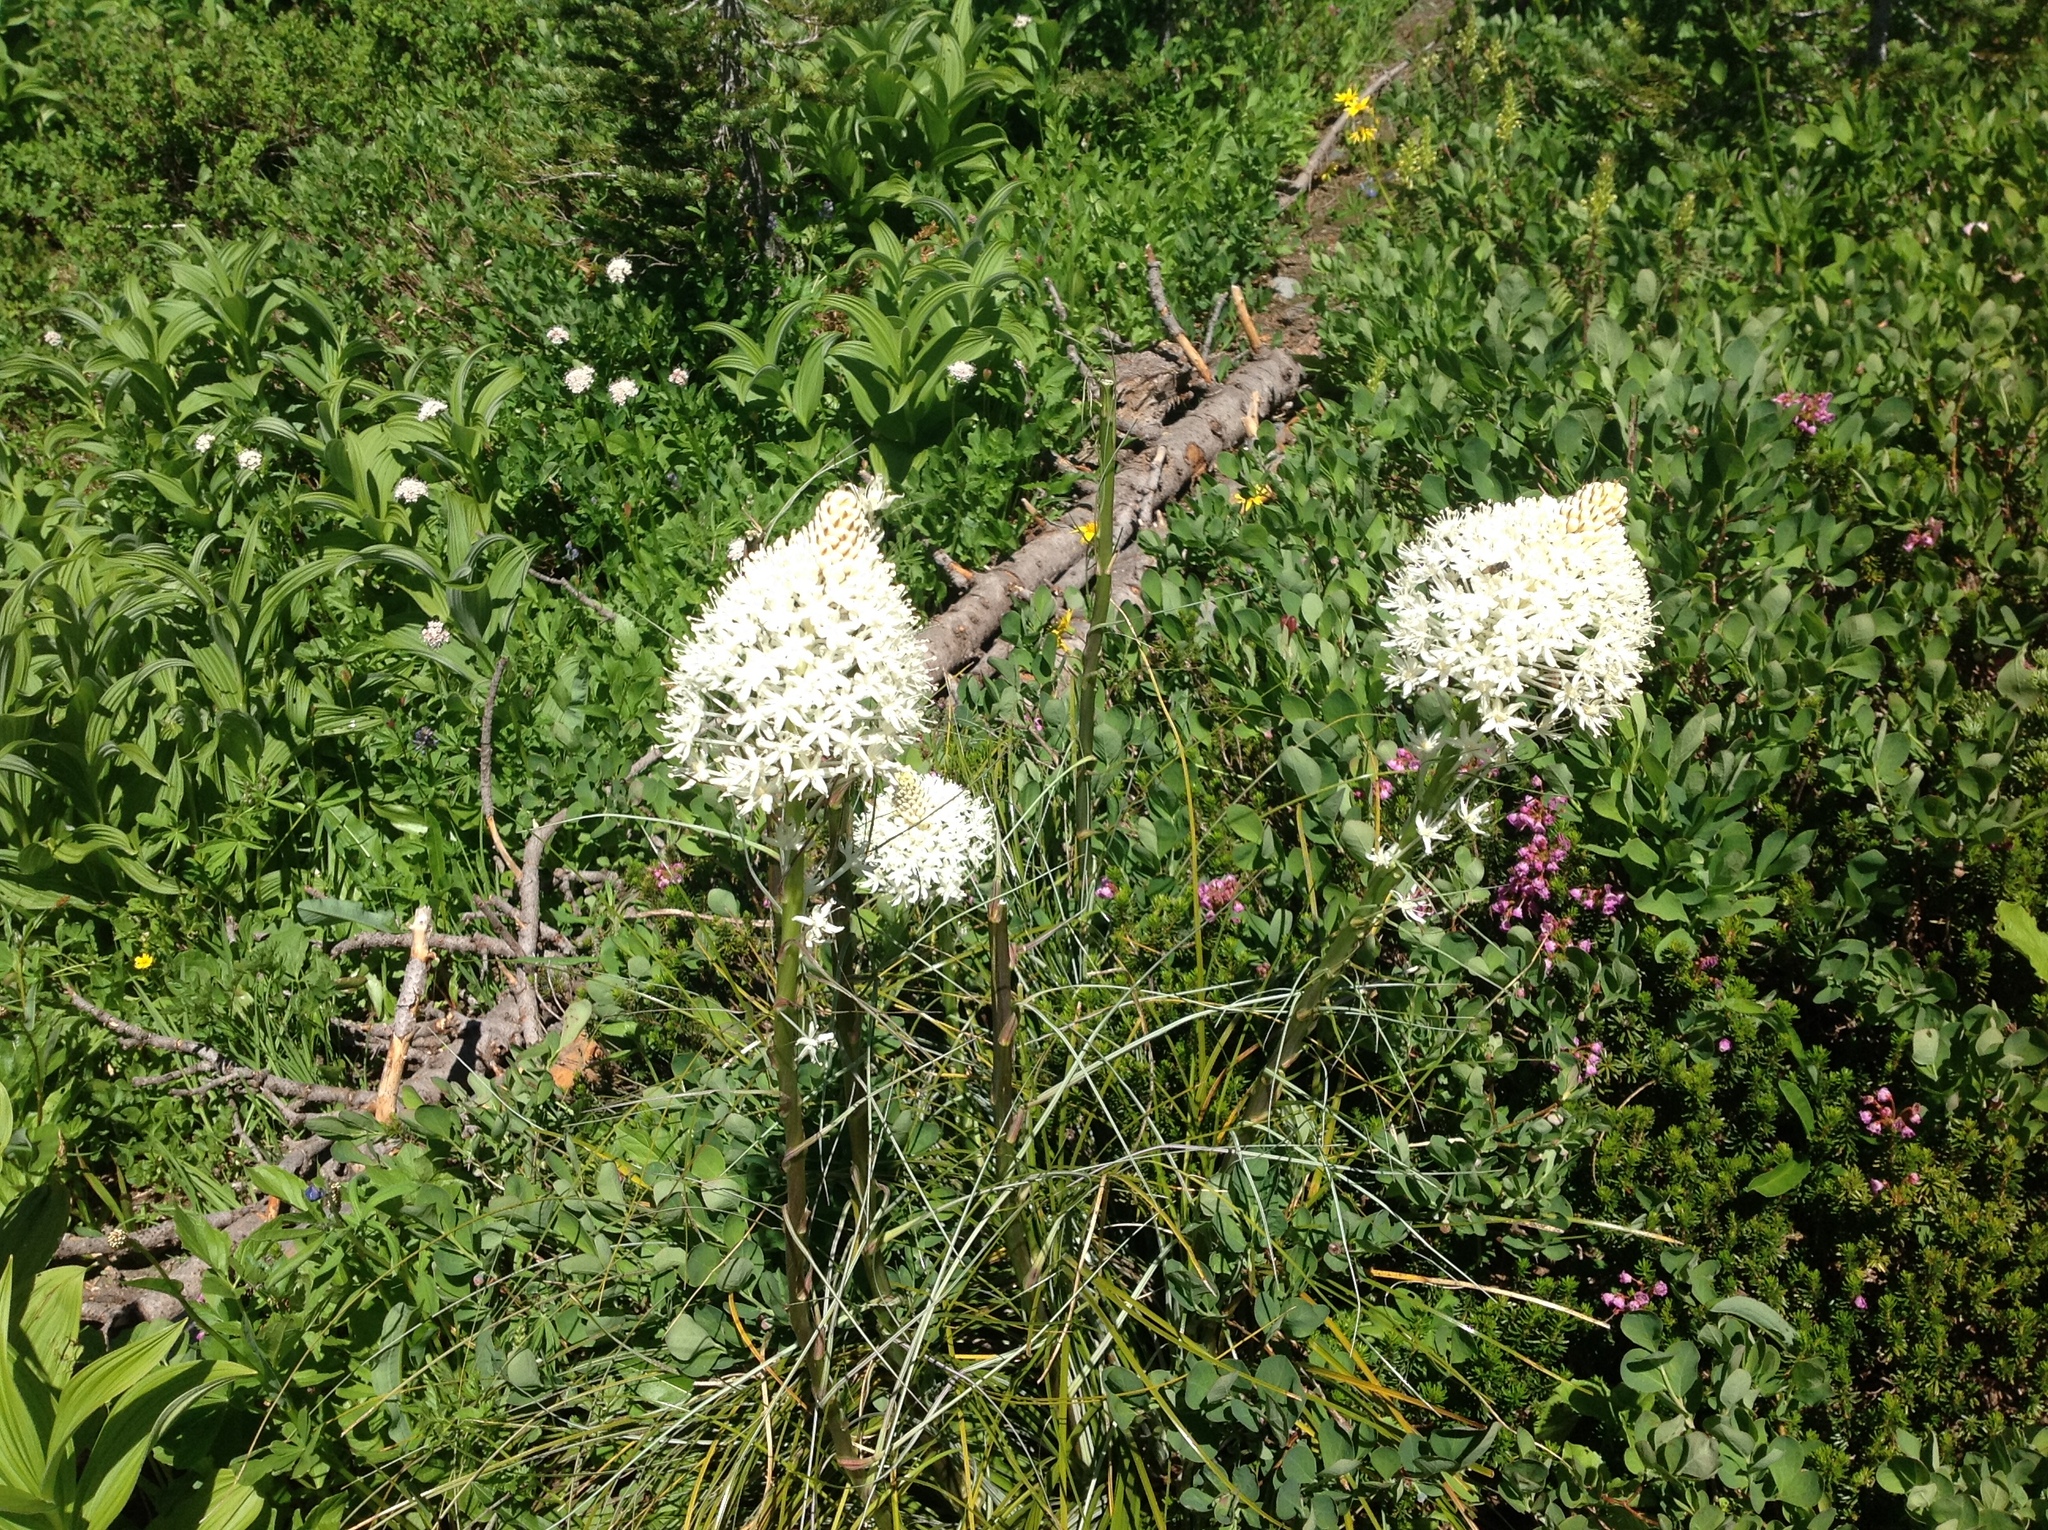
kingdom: Plantae
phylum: Tracheophyta
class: Liliopsida
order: Liliales
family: Melanthiaceae
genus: Xerophyllum
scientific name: Xerophyllum tenax
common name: Bear-grass
